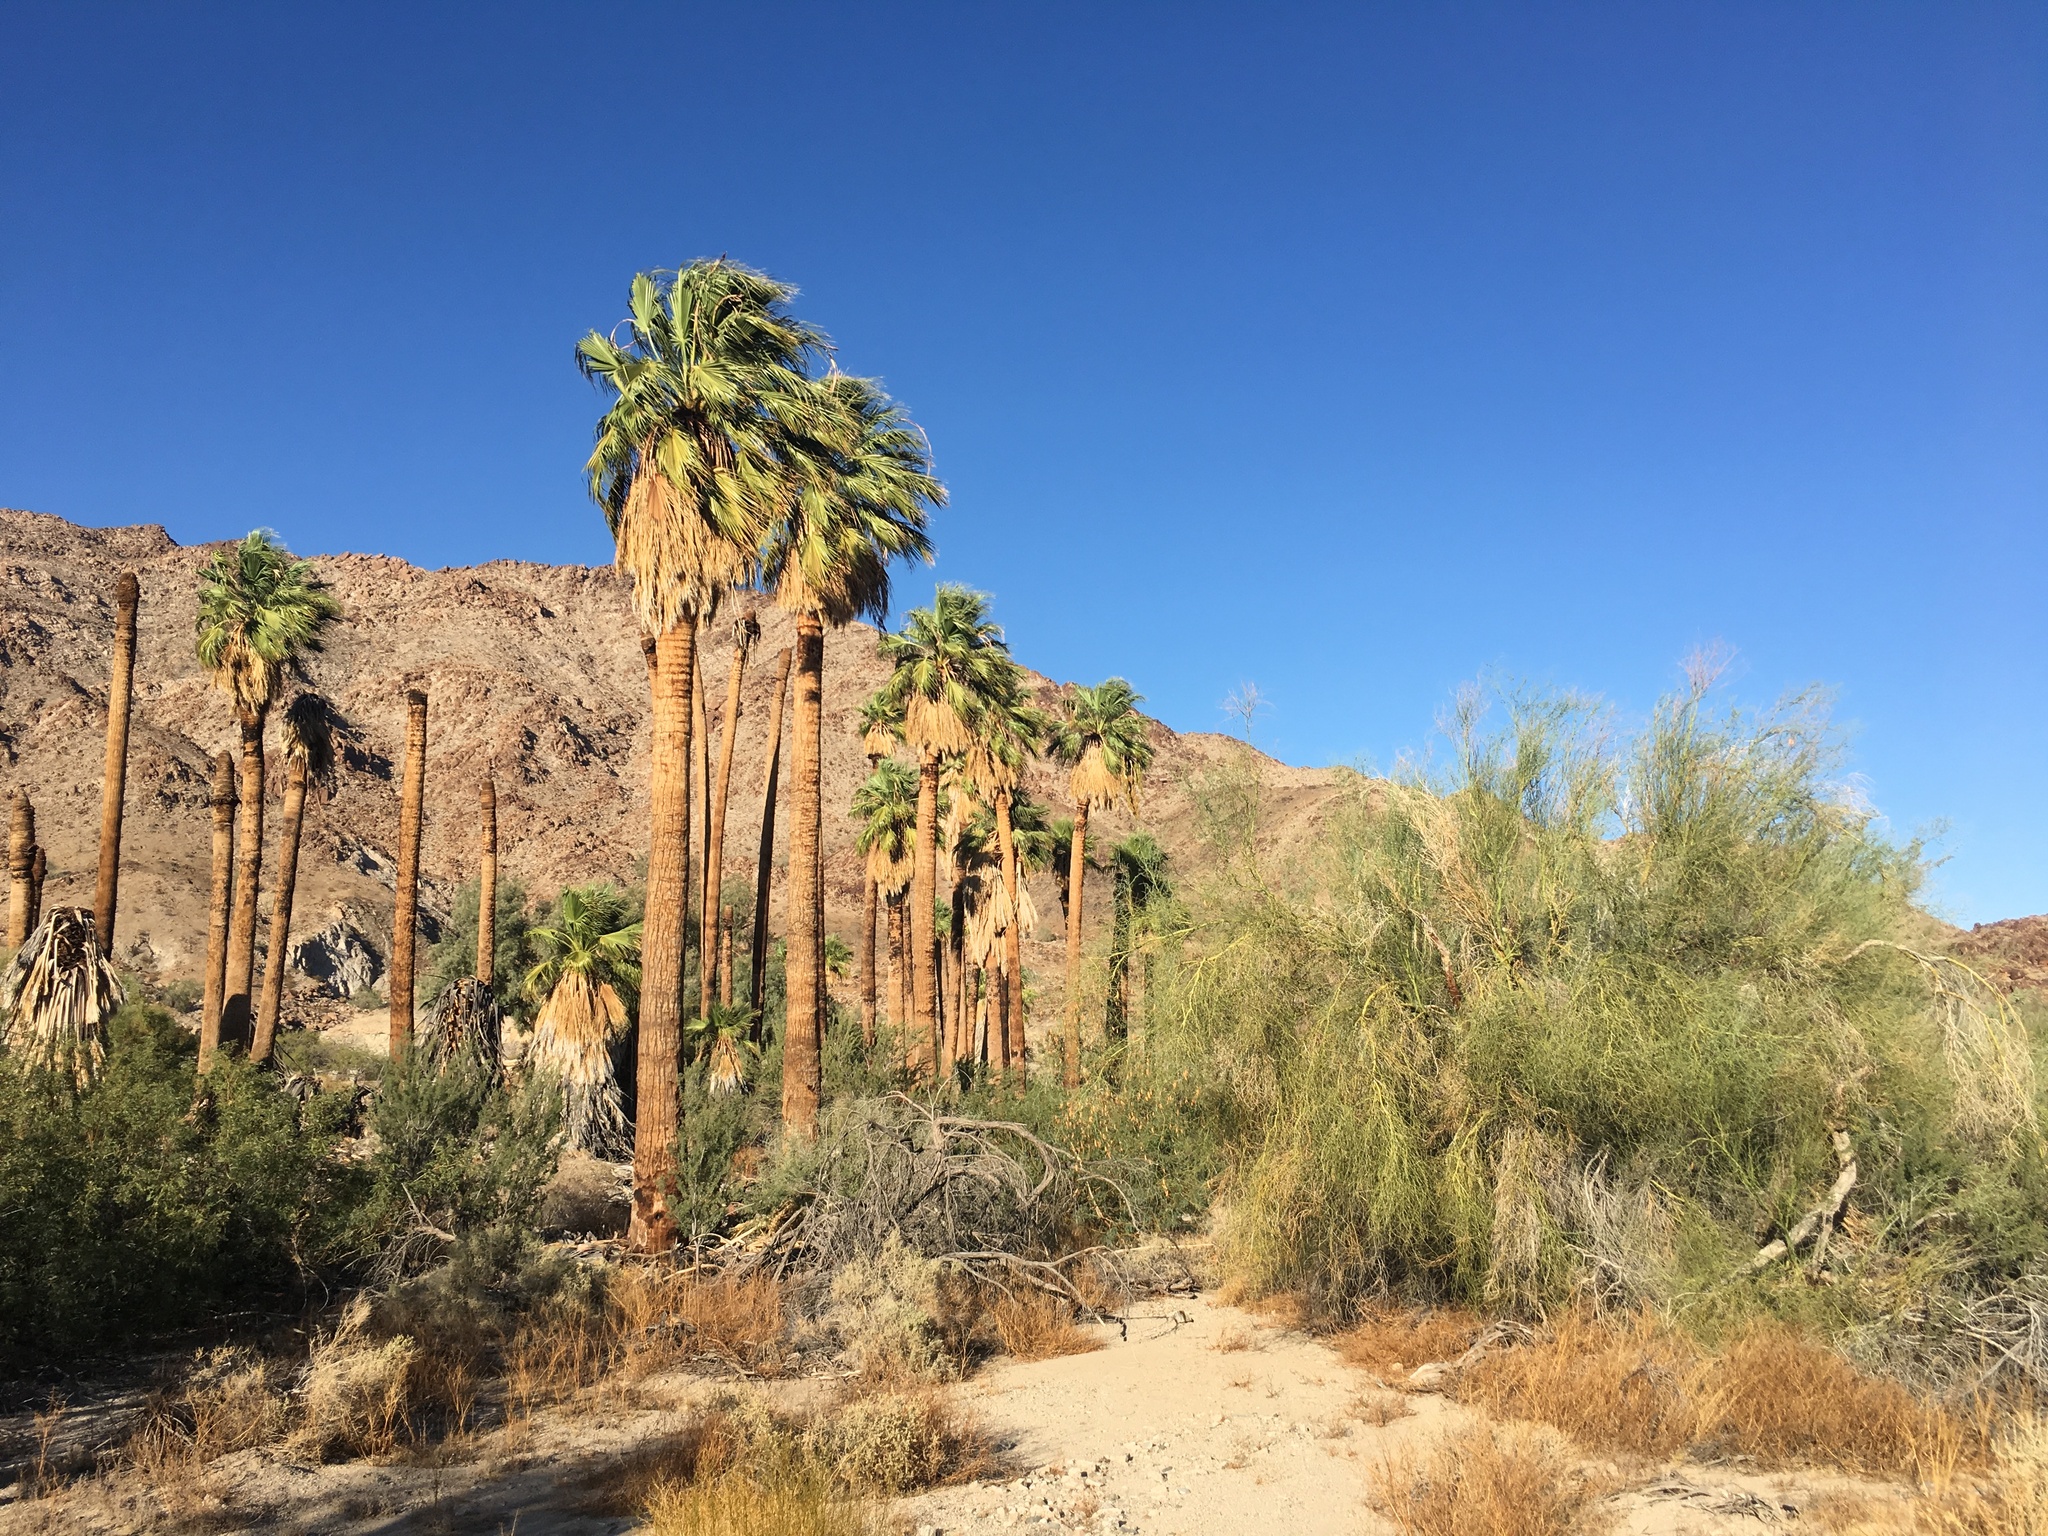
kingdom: Plantae
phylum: Tracheophyta
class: Liliopsida
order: Arecales
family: Arecaceae
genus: Washingtonia
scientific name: Washingtonia filifera
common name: California fan palm
